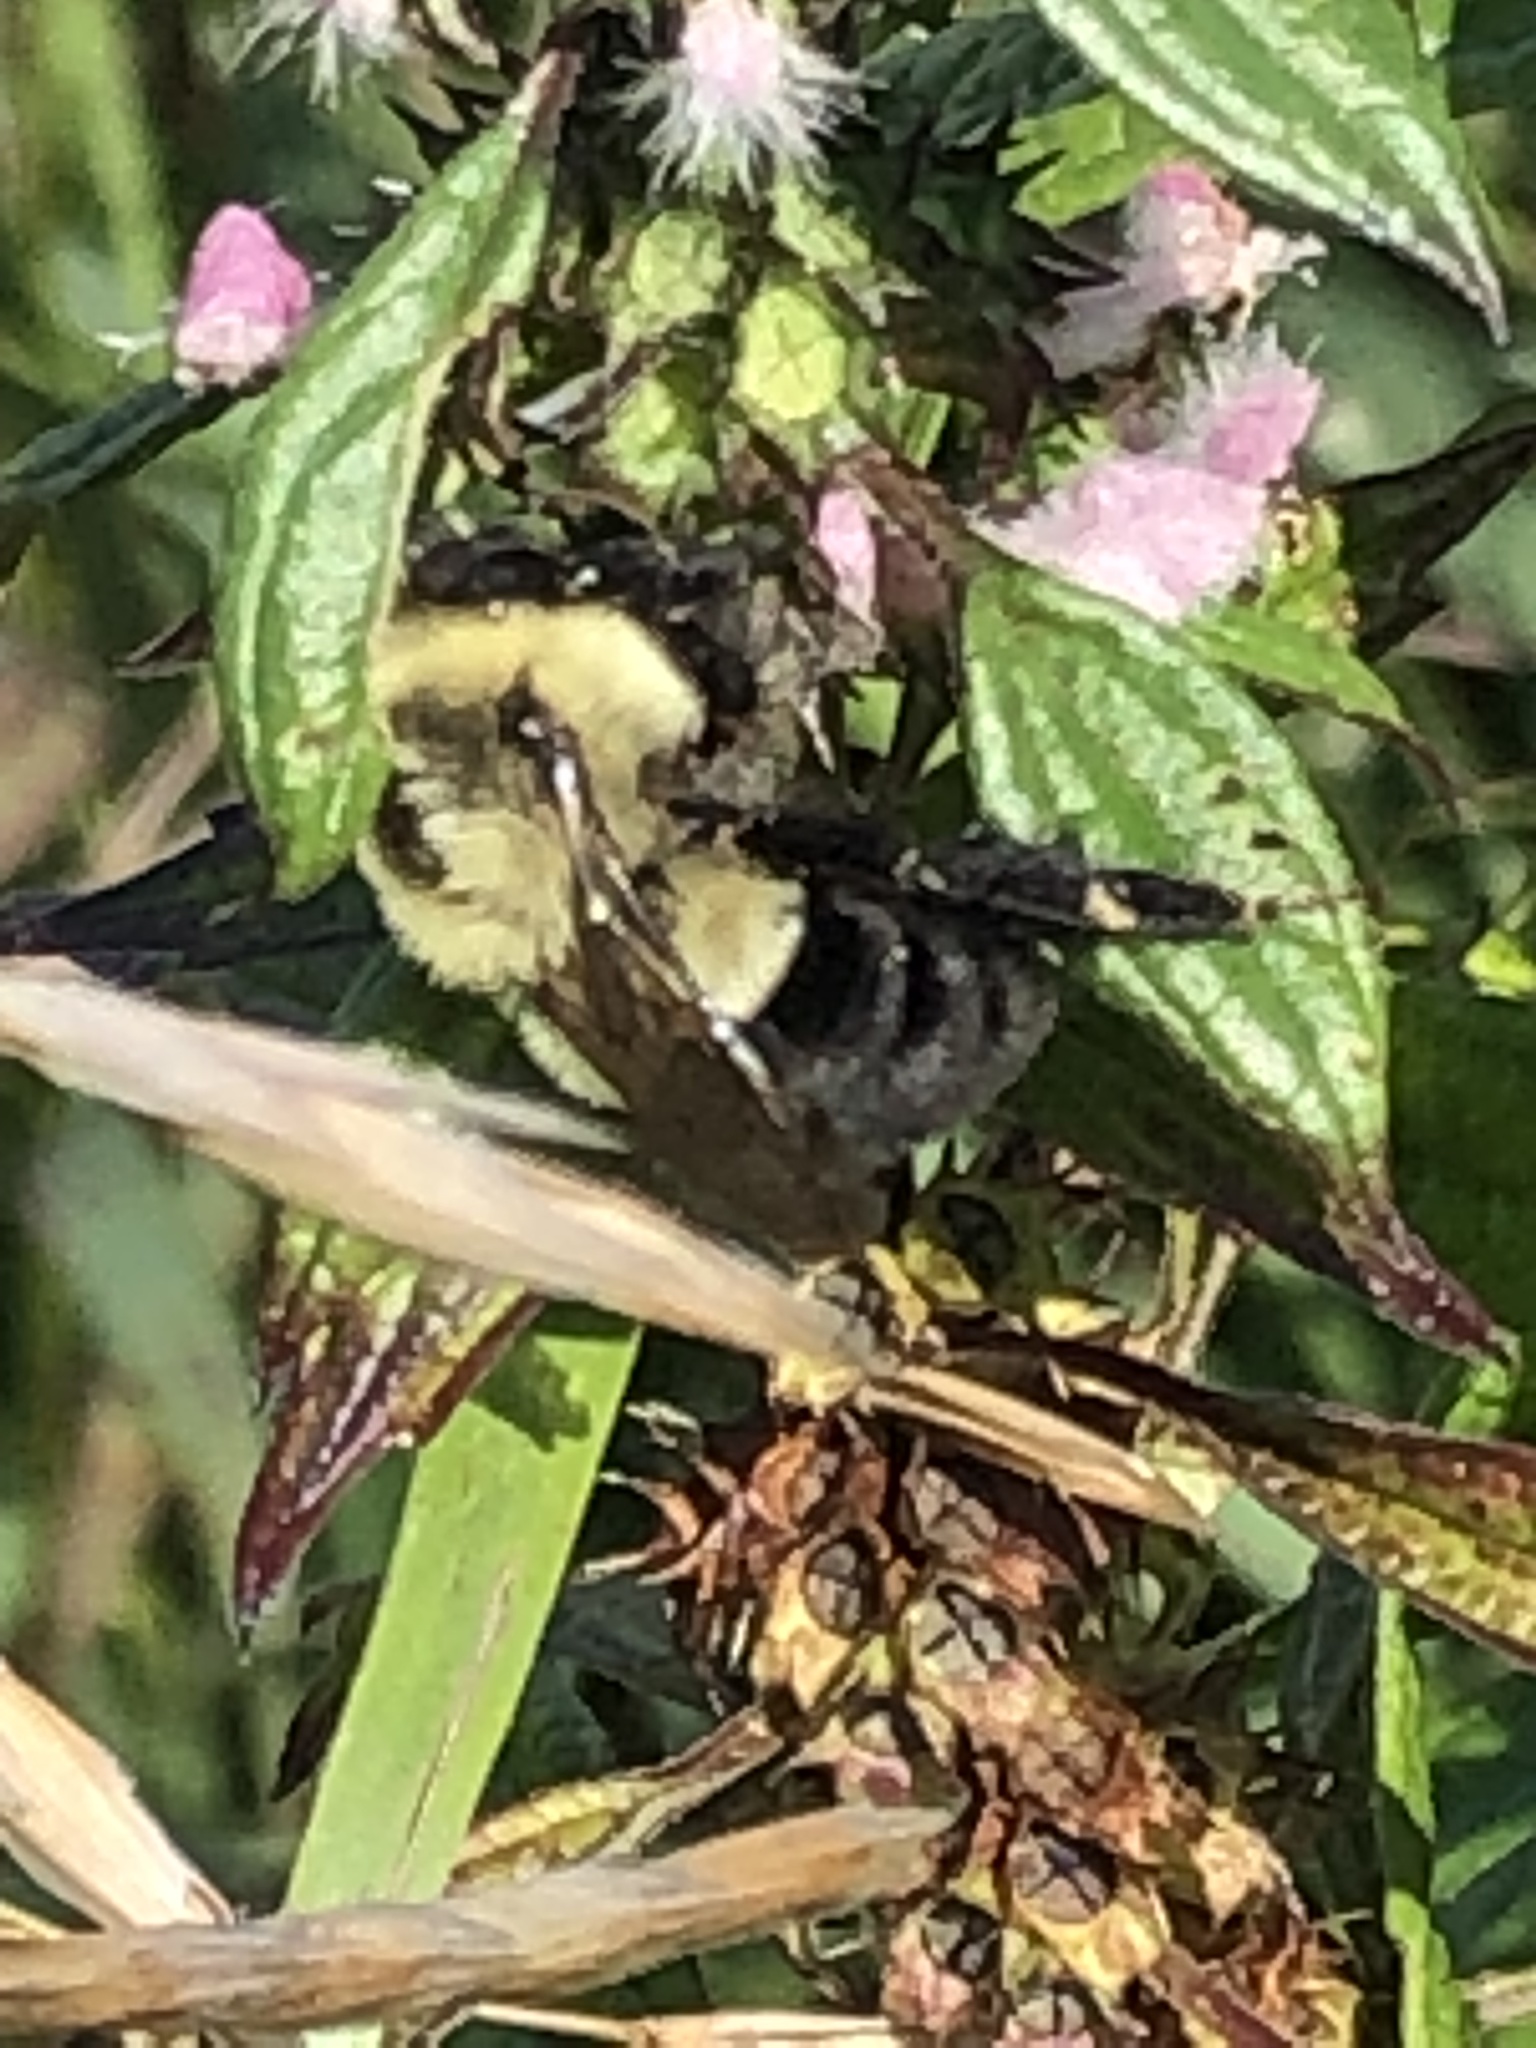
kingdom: Animalia
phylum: Arthropoda
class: Insecta
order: Hymenoptera
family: Apidae
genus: Bombus
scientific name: Bombus impatiens
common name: Common eastern bumble bee
